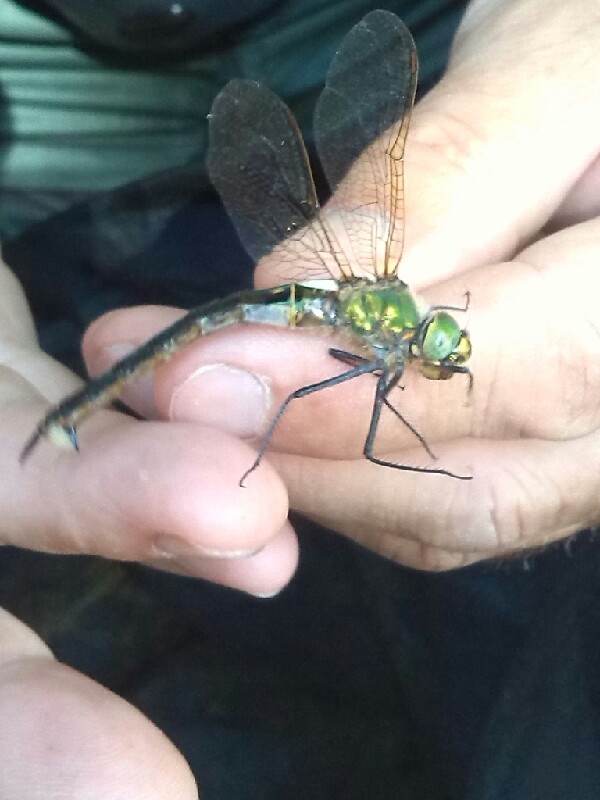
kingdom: Animalia
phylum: Arthropoda
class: Insecta
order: Odonata
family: Corduliidae
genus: Somatochlora
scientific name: Somatochlora metallica
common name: Brilliant emerald
